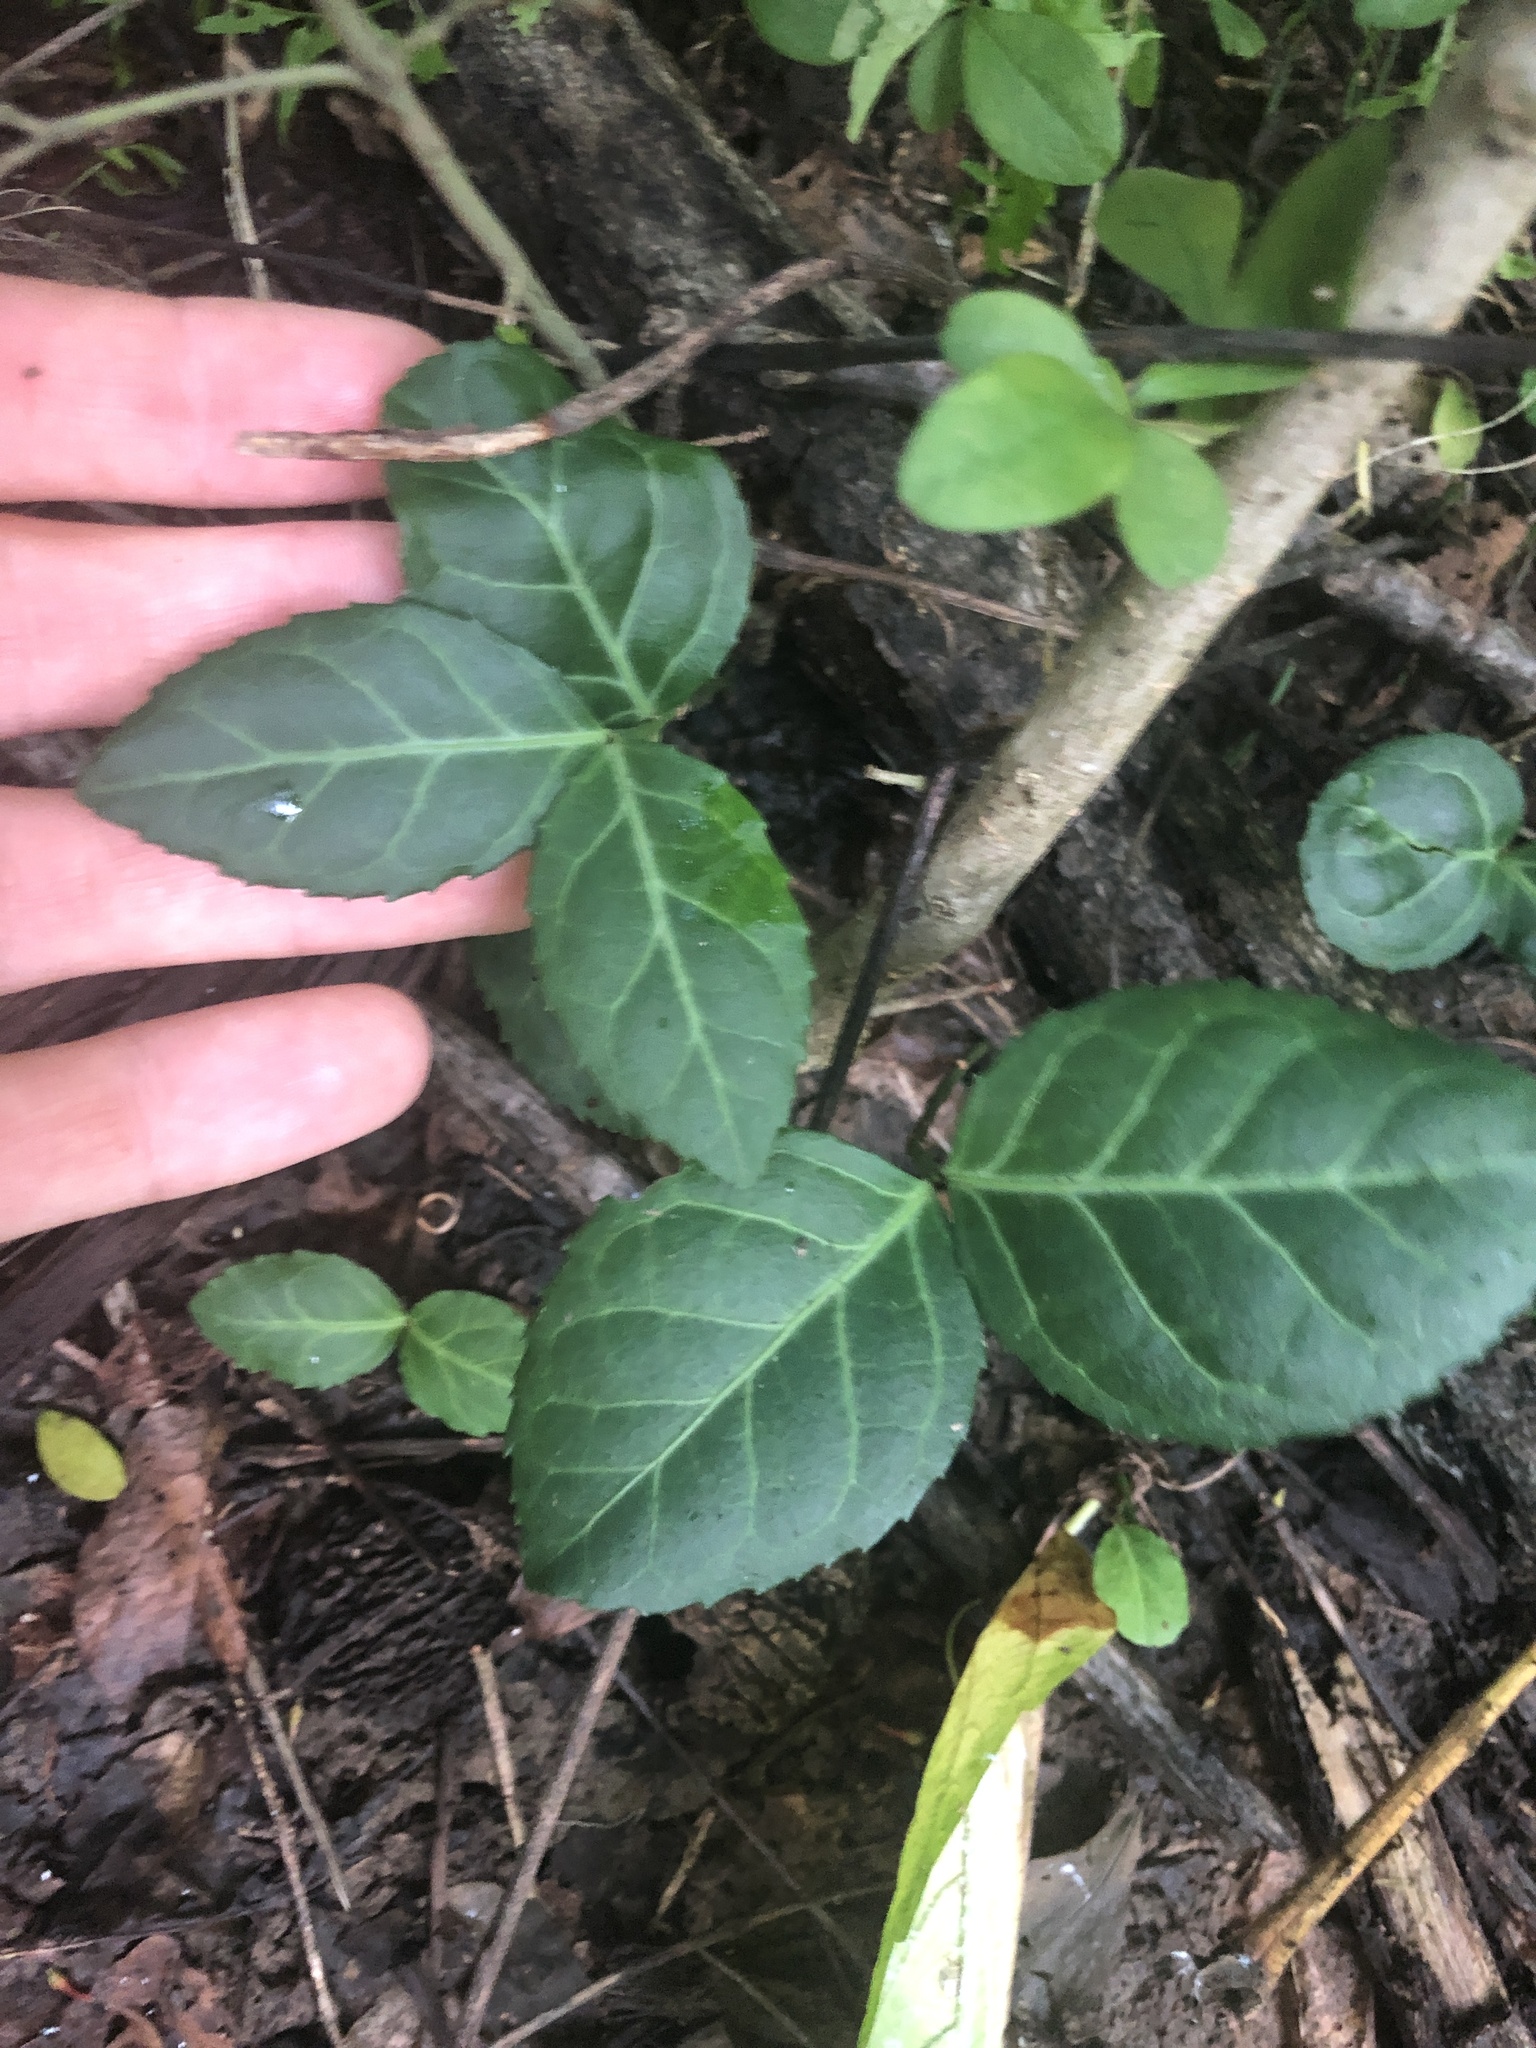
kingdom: Plantae
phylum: Tracheophyta
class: Magnoliopsida
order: Celastrales
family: Celastraceae
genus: Euonymus
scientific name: Euonymus fortunei
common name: Climbing euonymus
